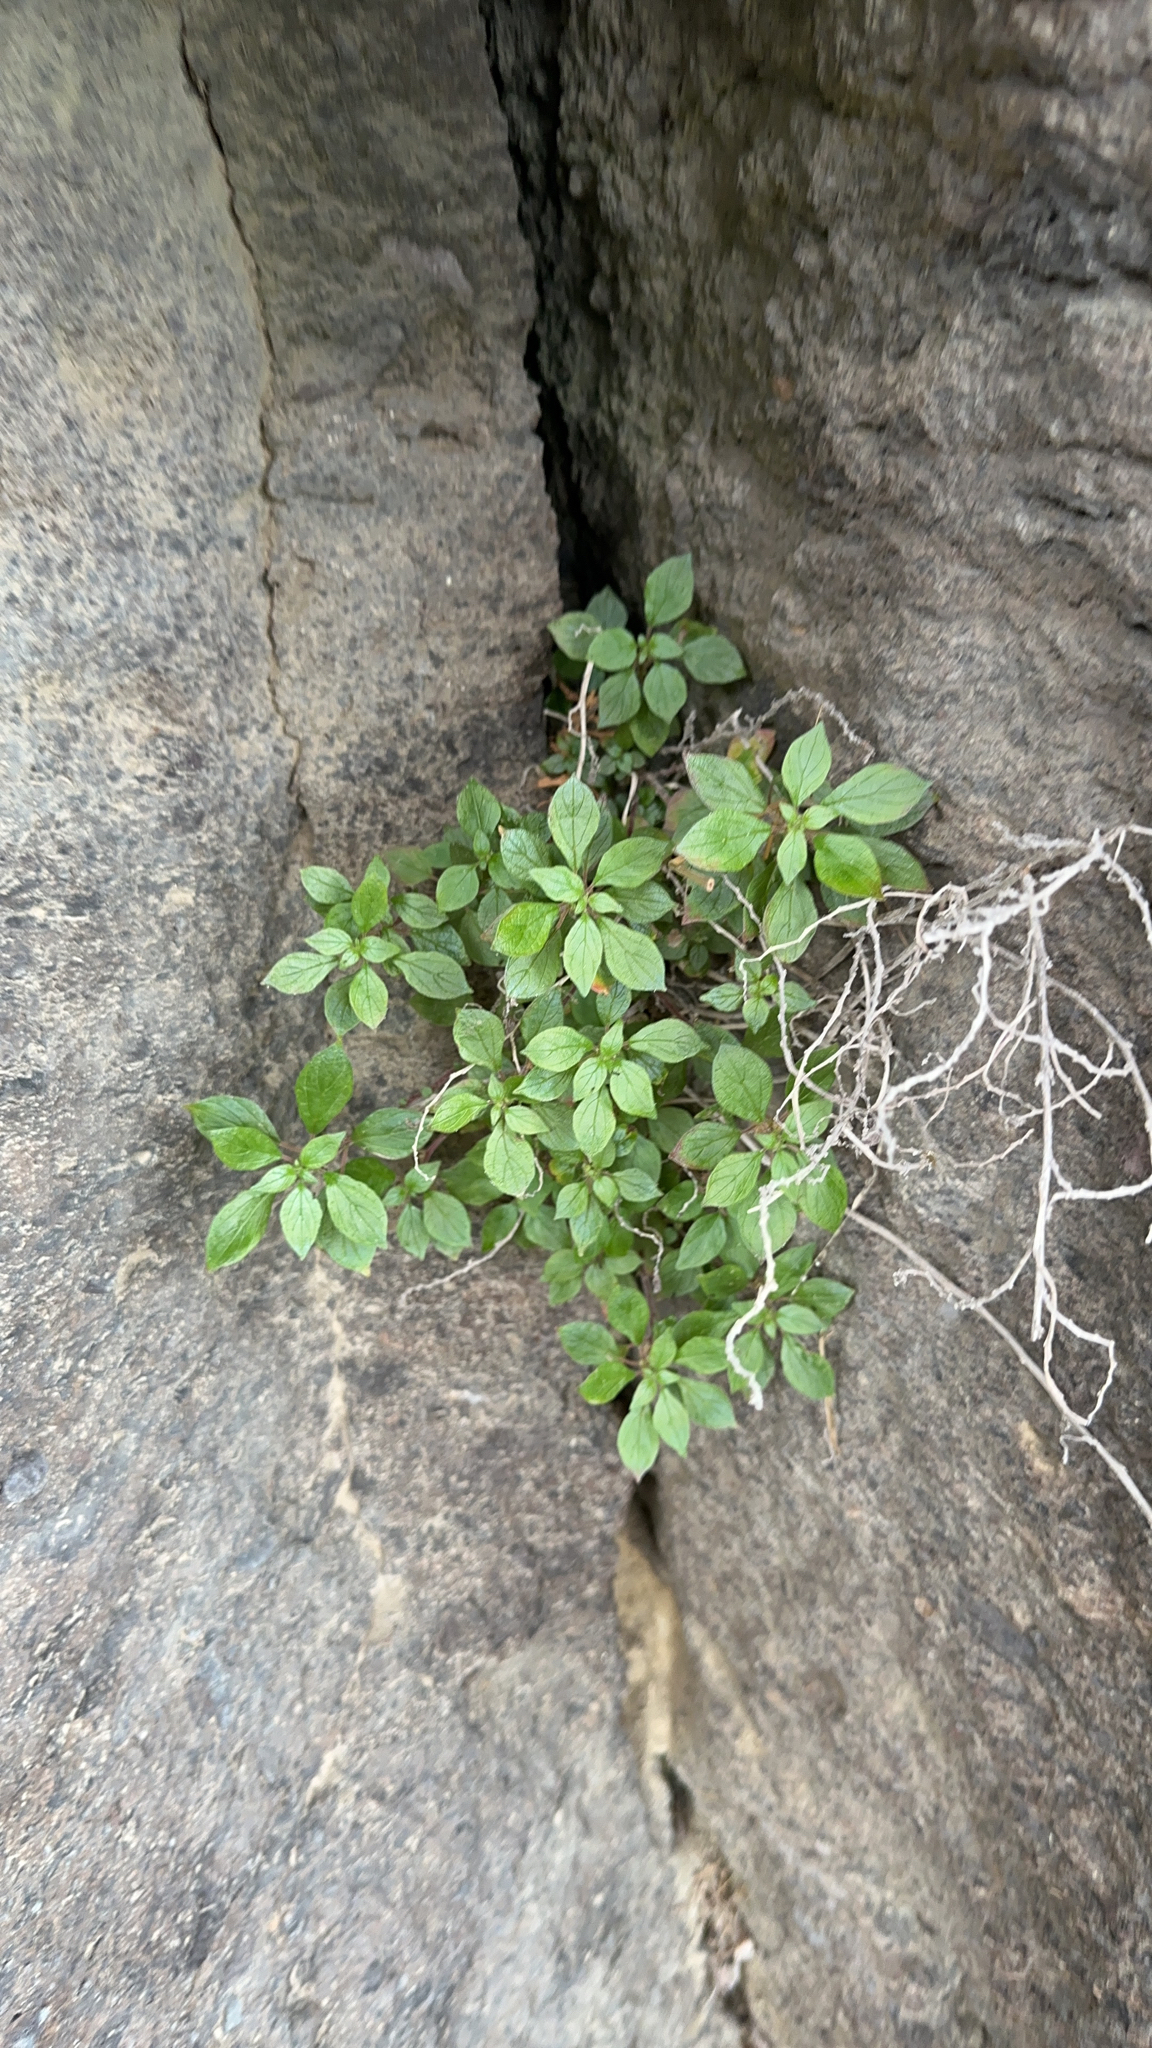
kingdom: Plantae
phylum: Tracheophyta
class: Magnoliopsida
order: Rosales
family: Urticaceae
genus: Parietaria
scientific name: Parietaria judaica
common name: Pellitory-of-the-wall
